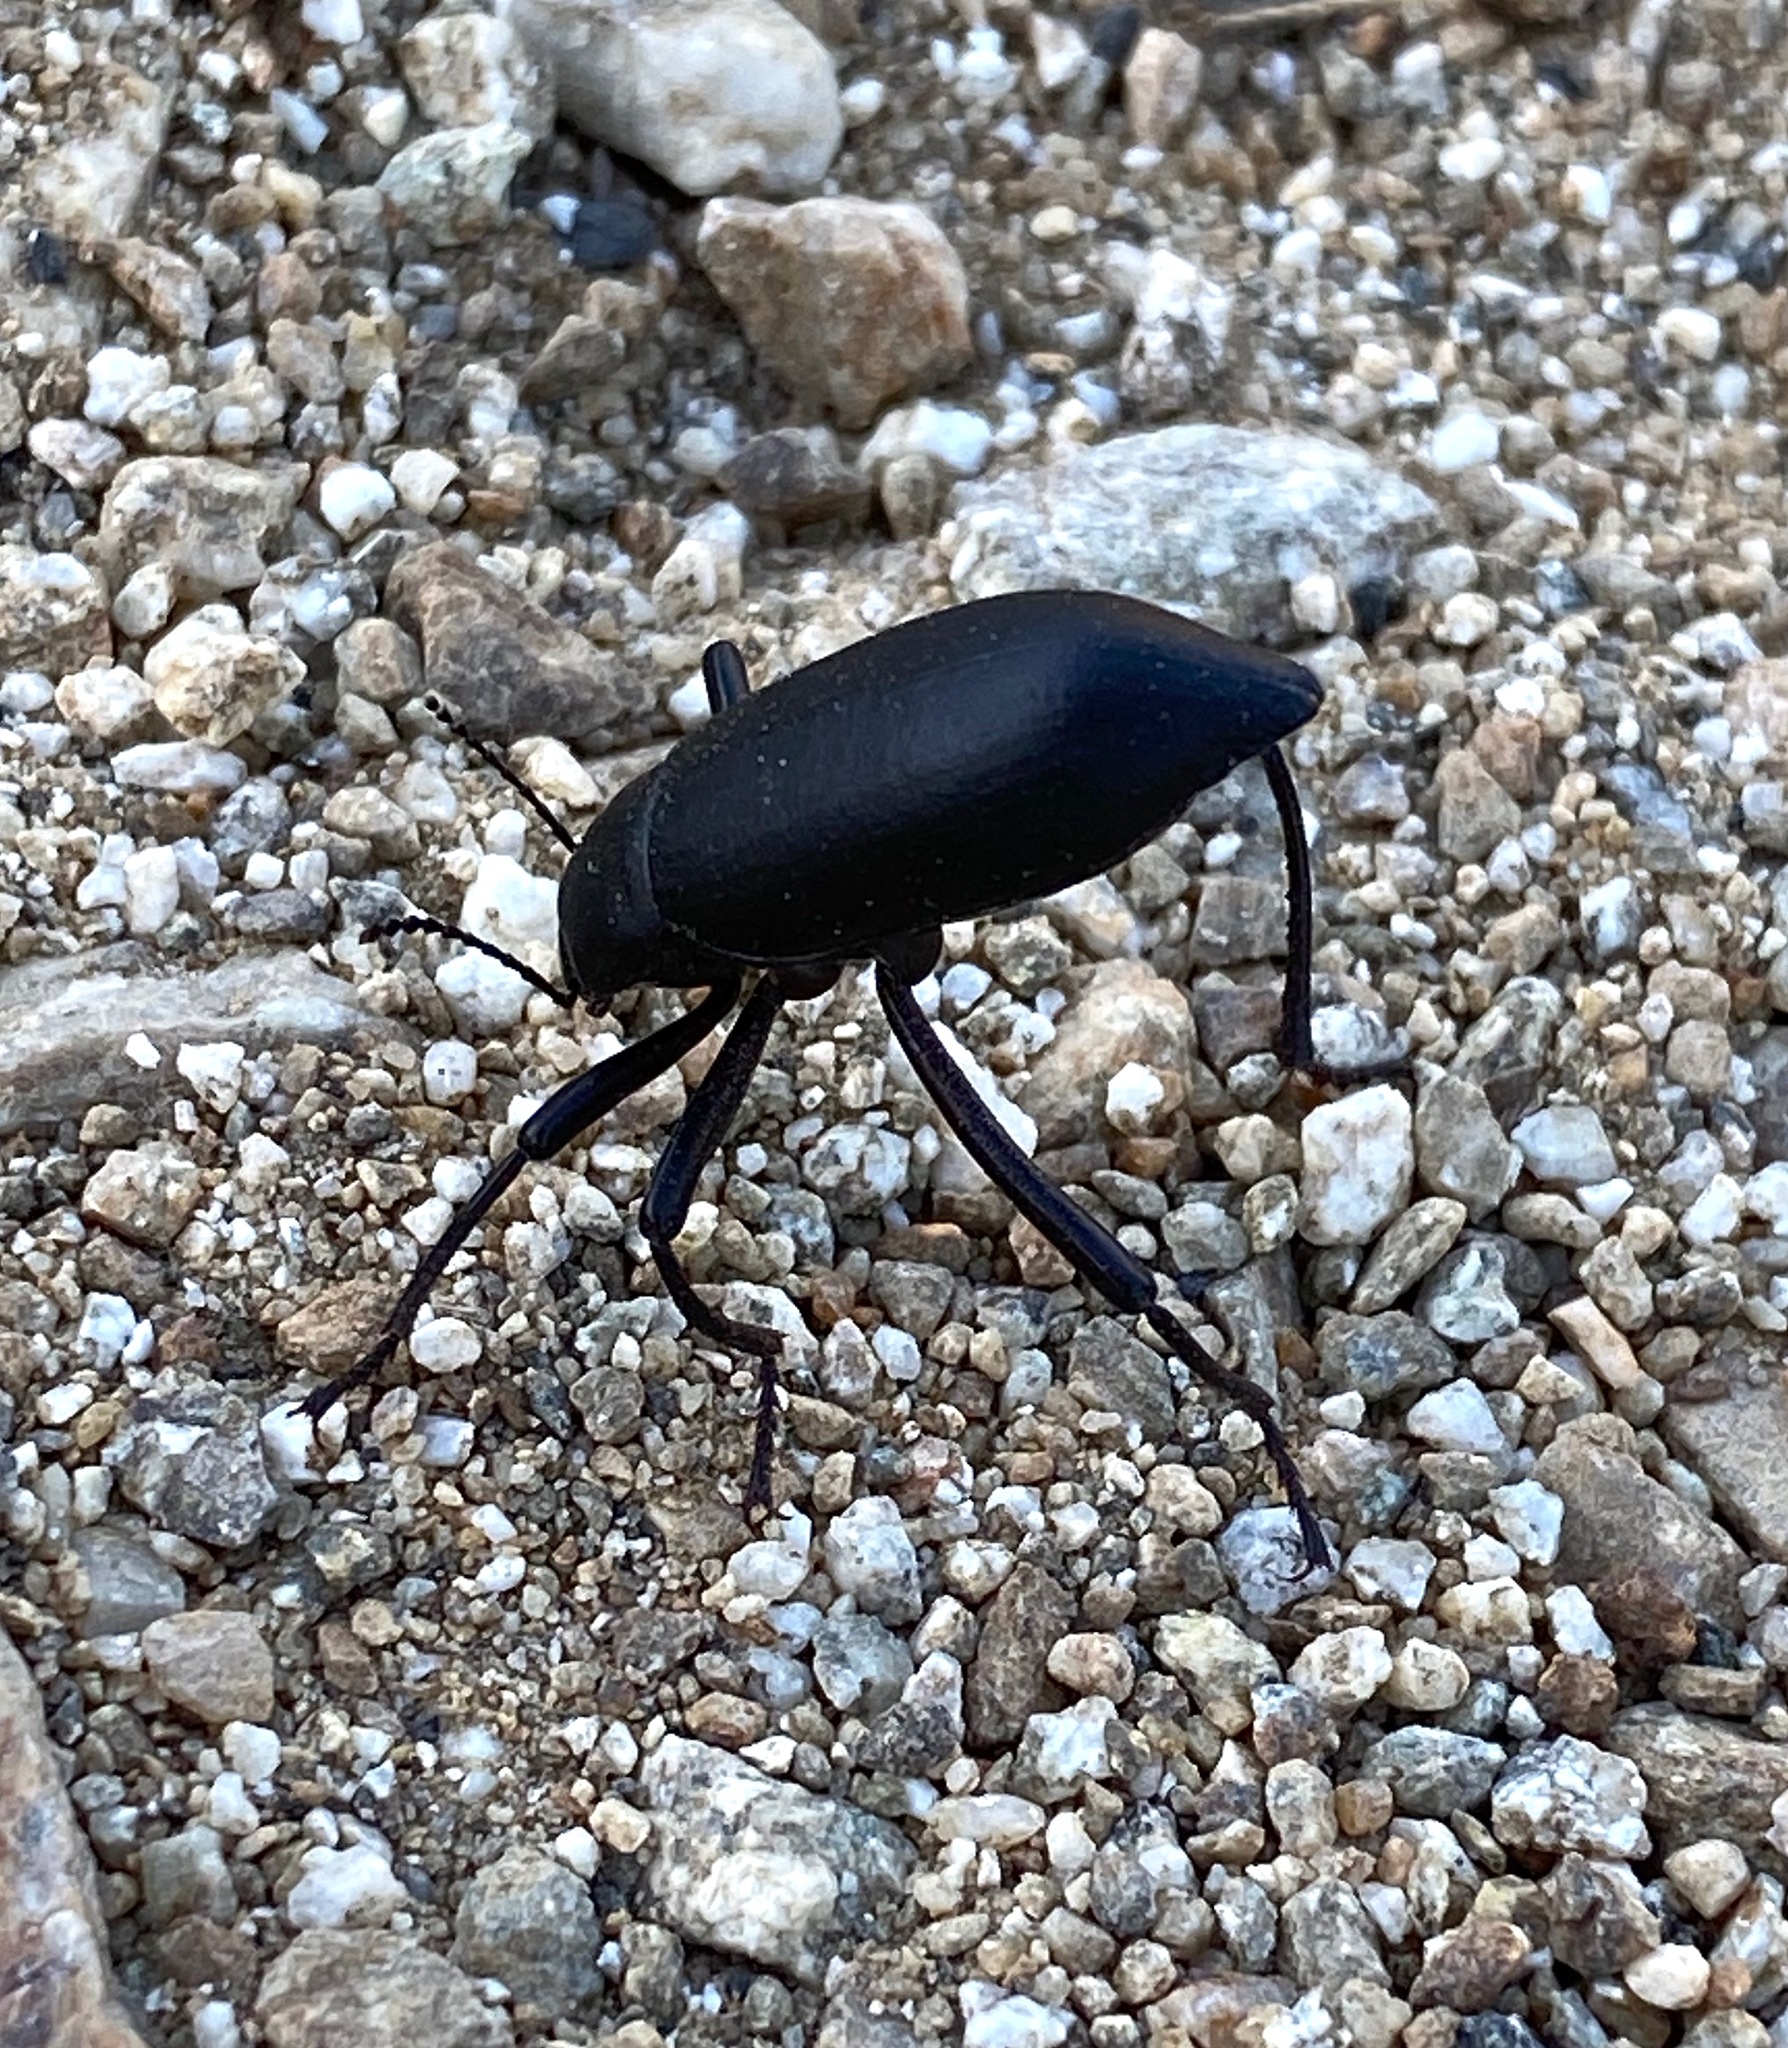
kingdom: Animalia
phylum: Arthropoda
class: Insecta
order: Coleoptera
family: Tenebrionidae
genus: Eleodes
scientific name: Eleodes subcylindrica
